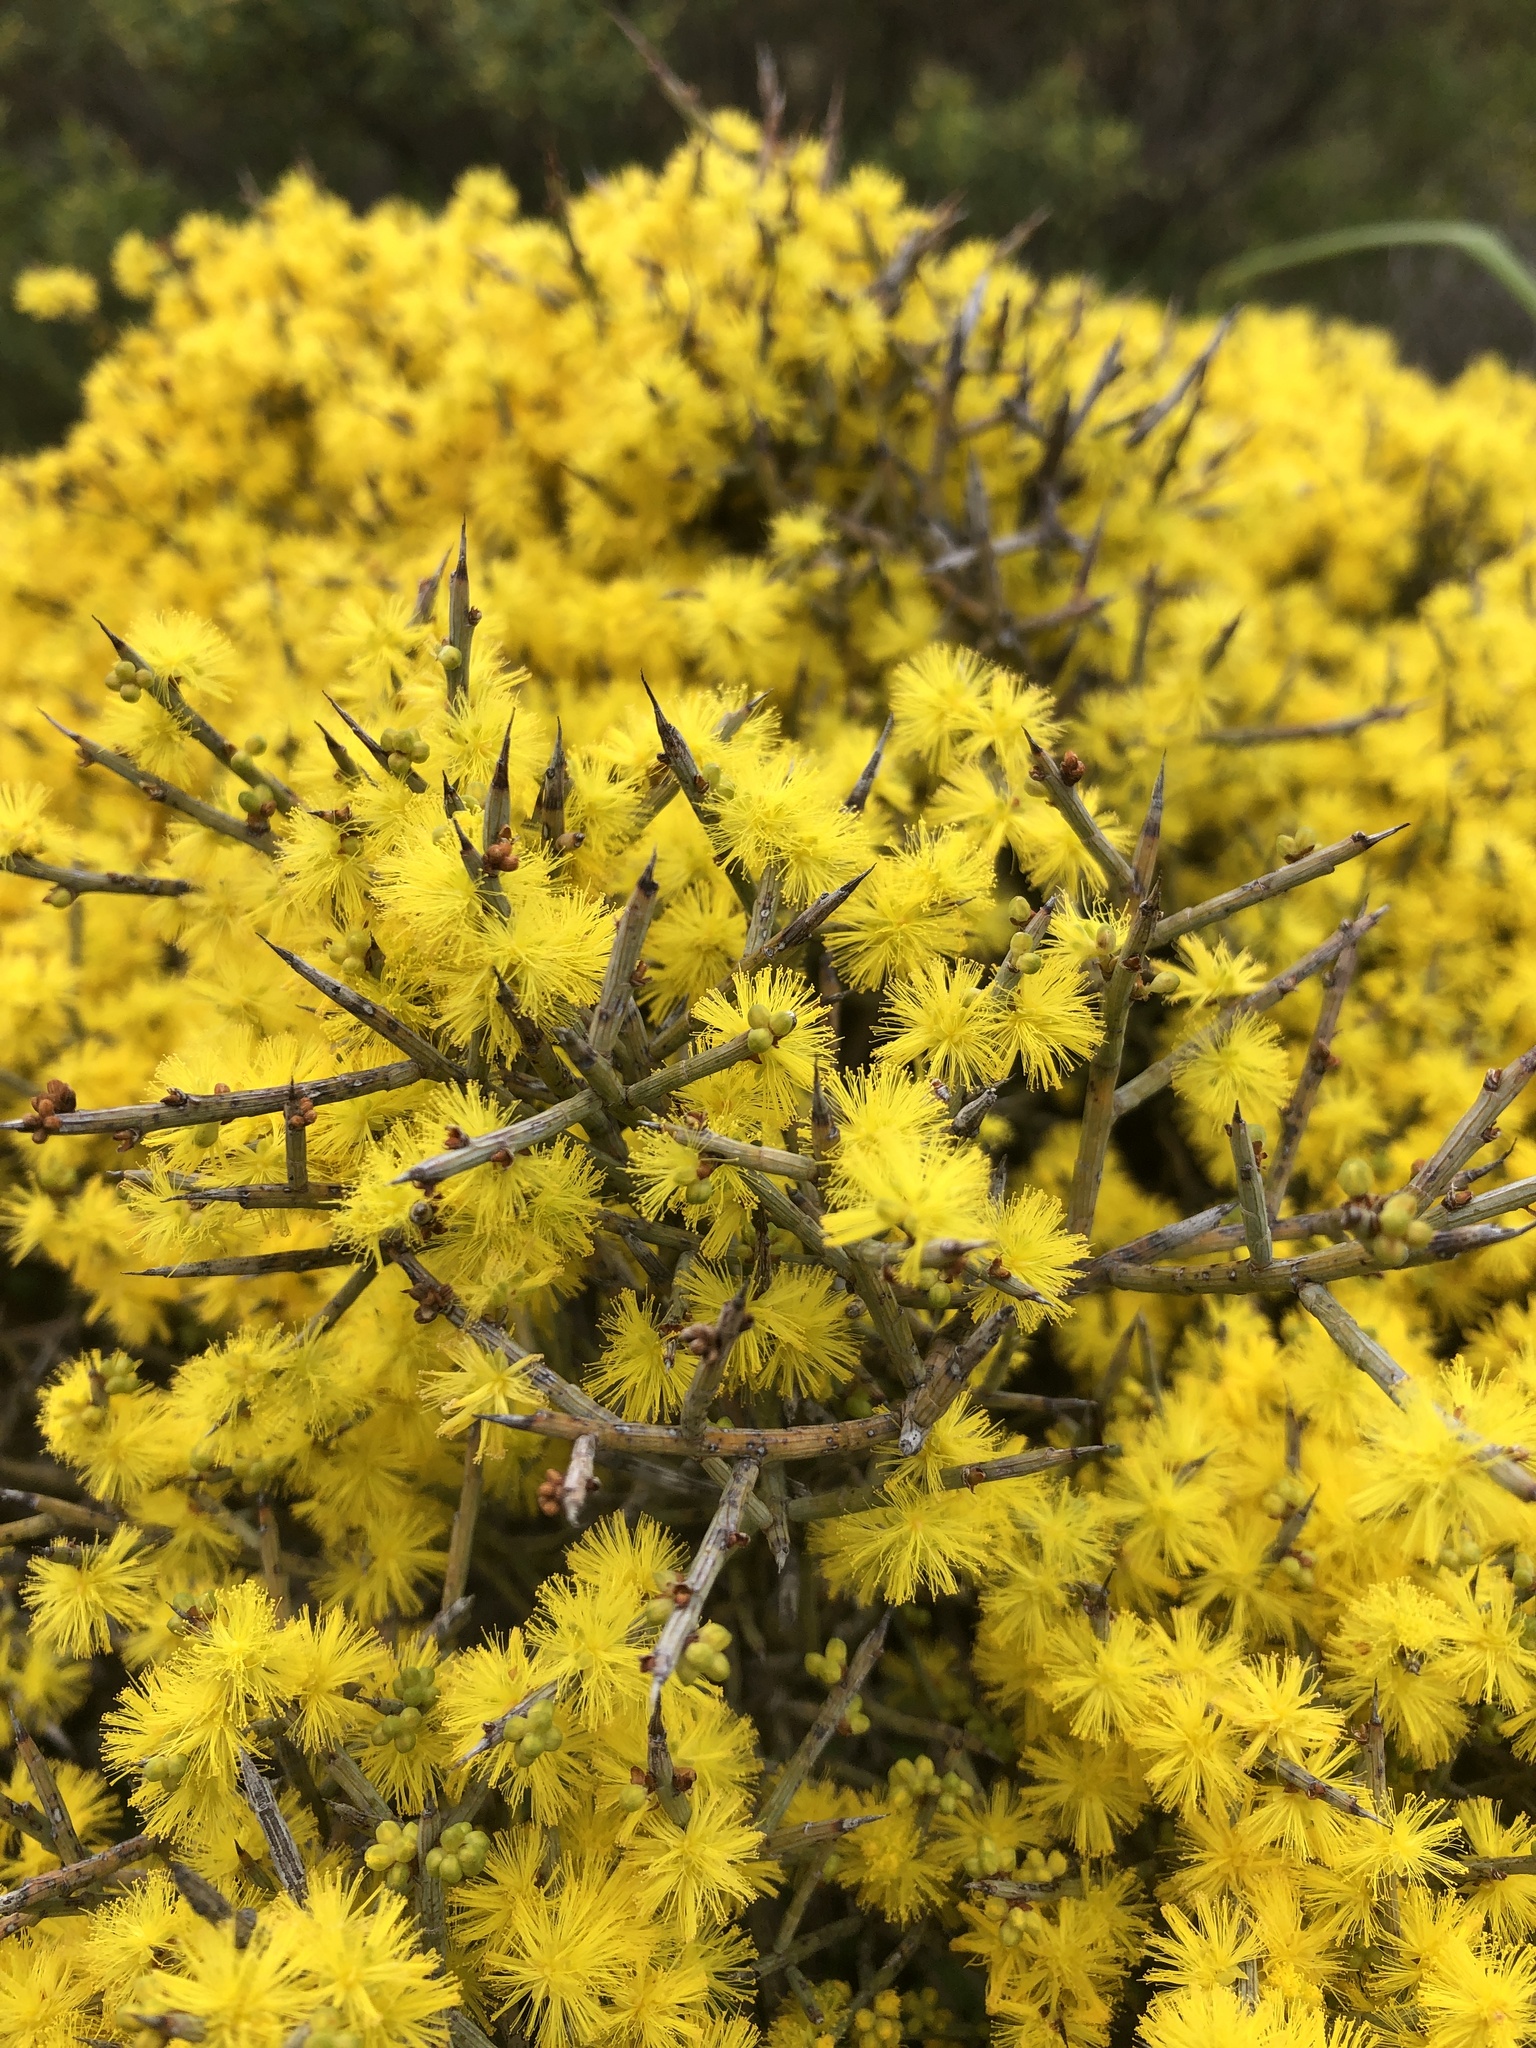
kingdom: Plantae
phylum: Tracheophyta
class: Magnoliopsida
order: Fabales
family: Fabaceae
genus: Acacia
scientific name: Acacia spinescens
